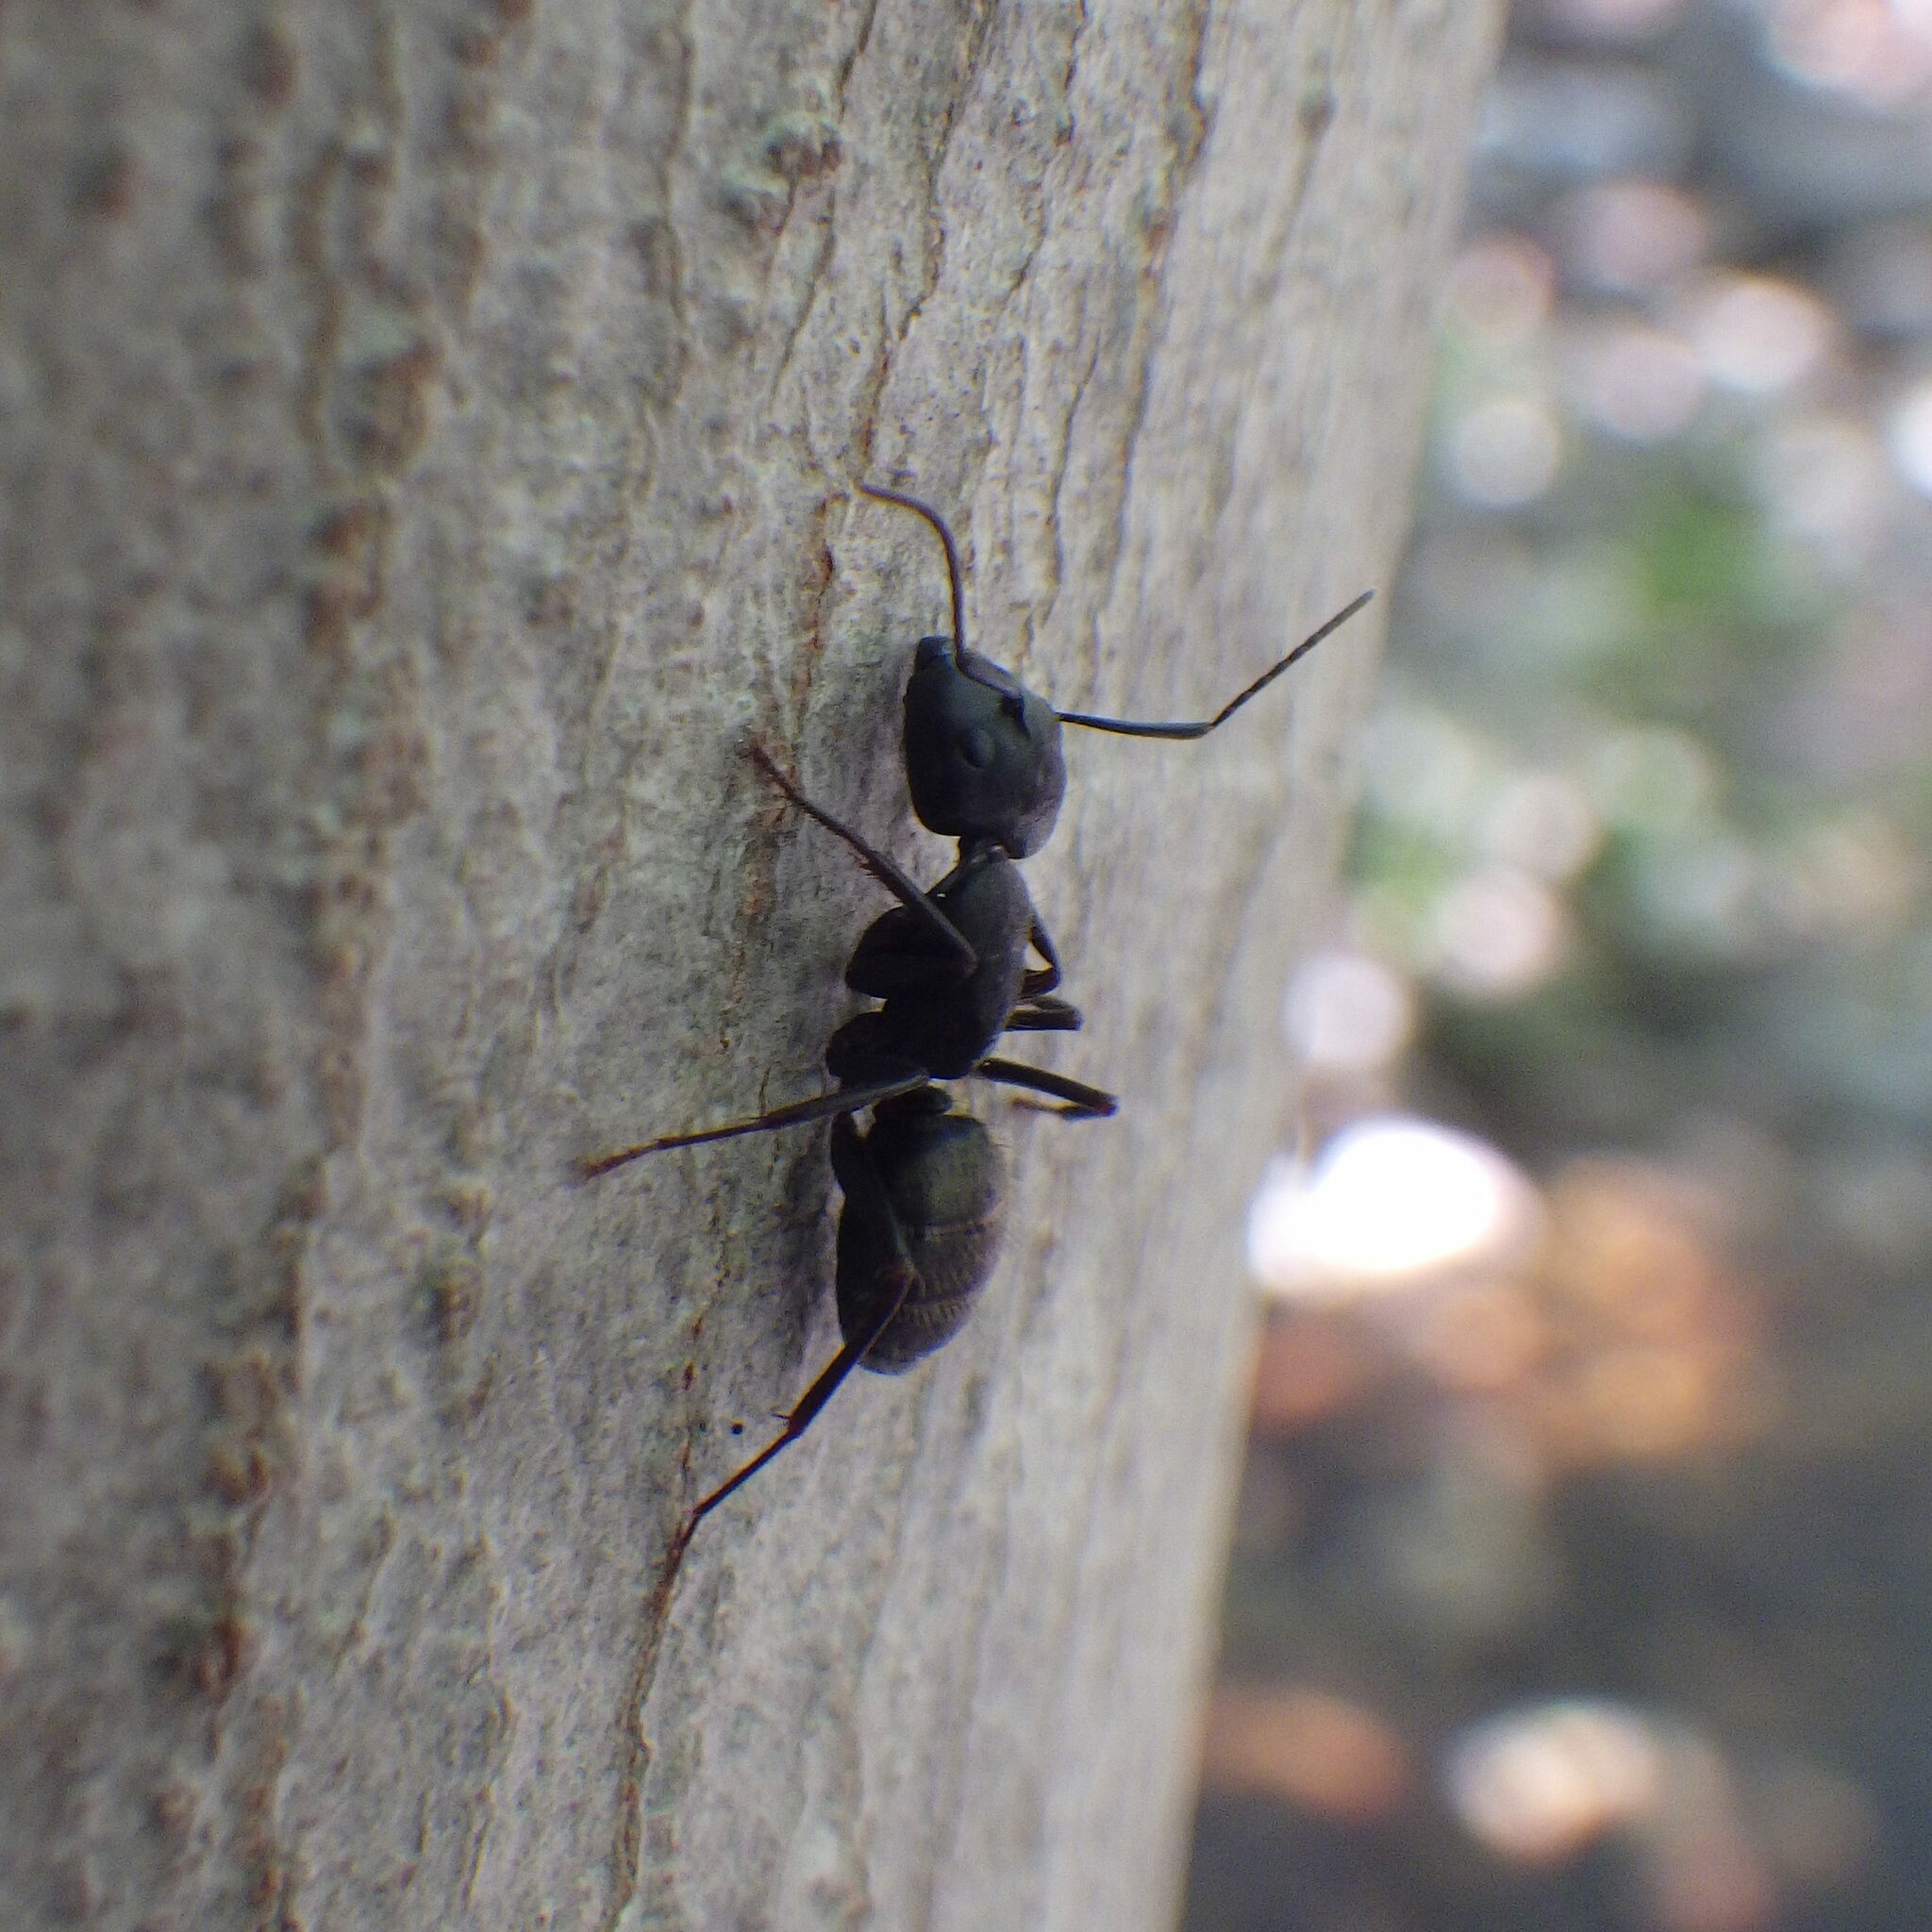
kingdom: Animalia
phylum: Arthropoda
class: Insecta
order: Hymenoptera
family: Formicidae
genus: Camponotus
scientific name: Camponotus pennsylvanicus
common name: Black carpenter ant
